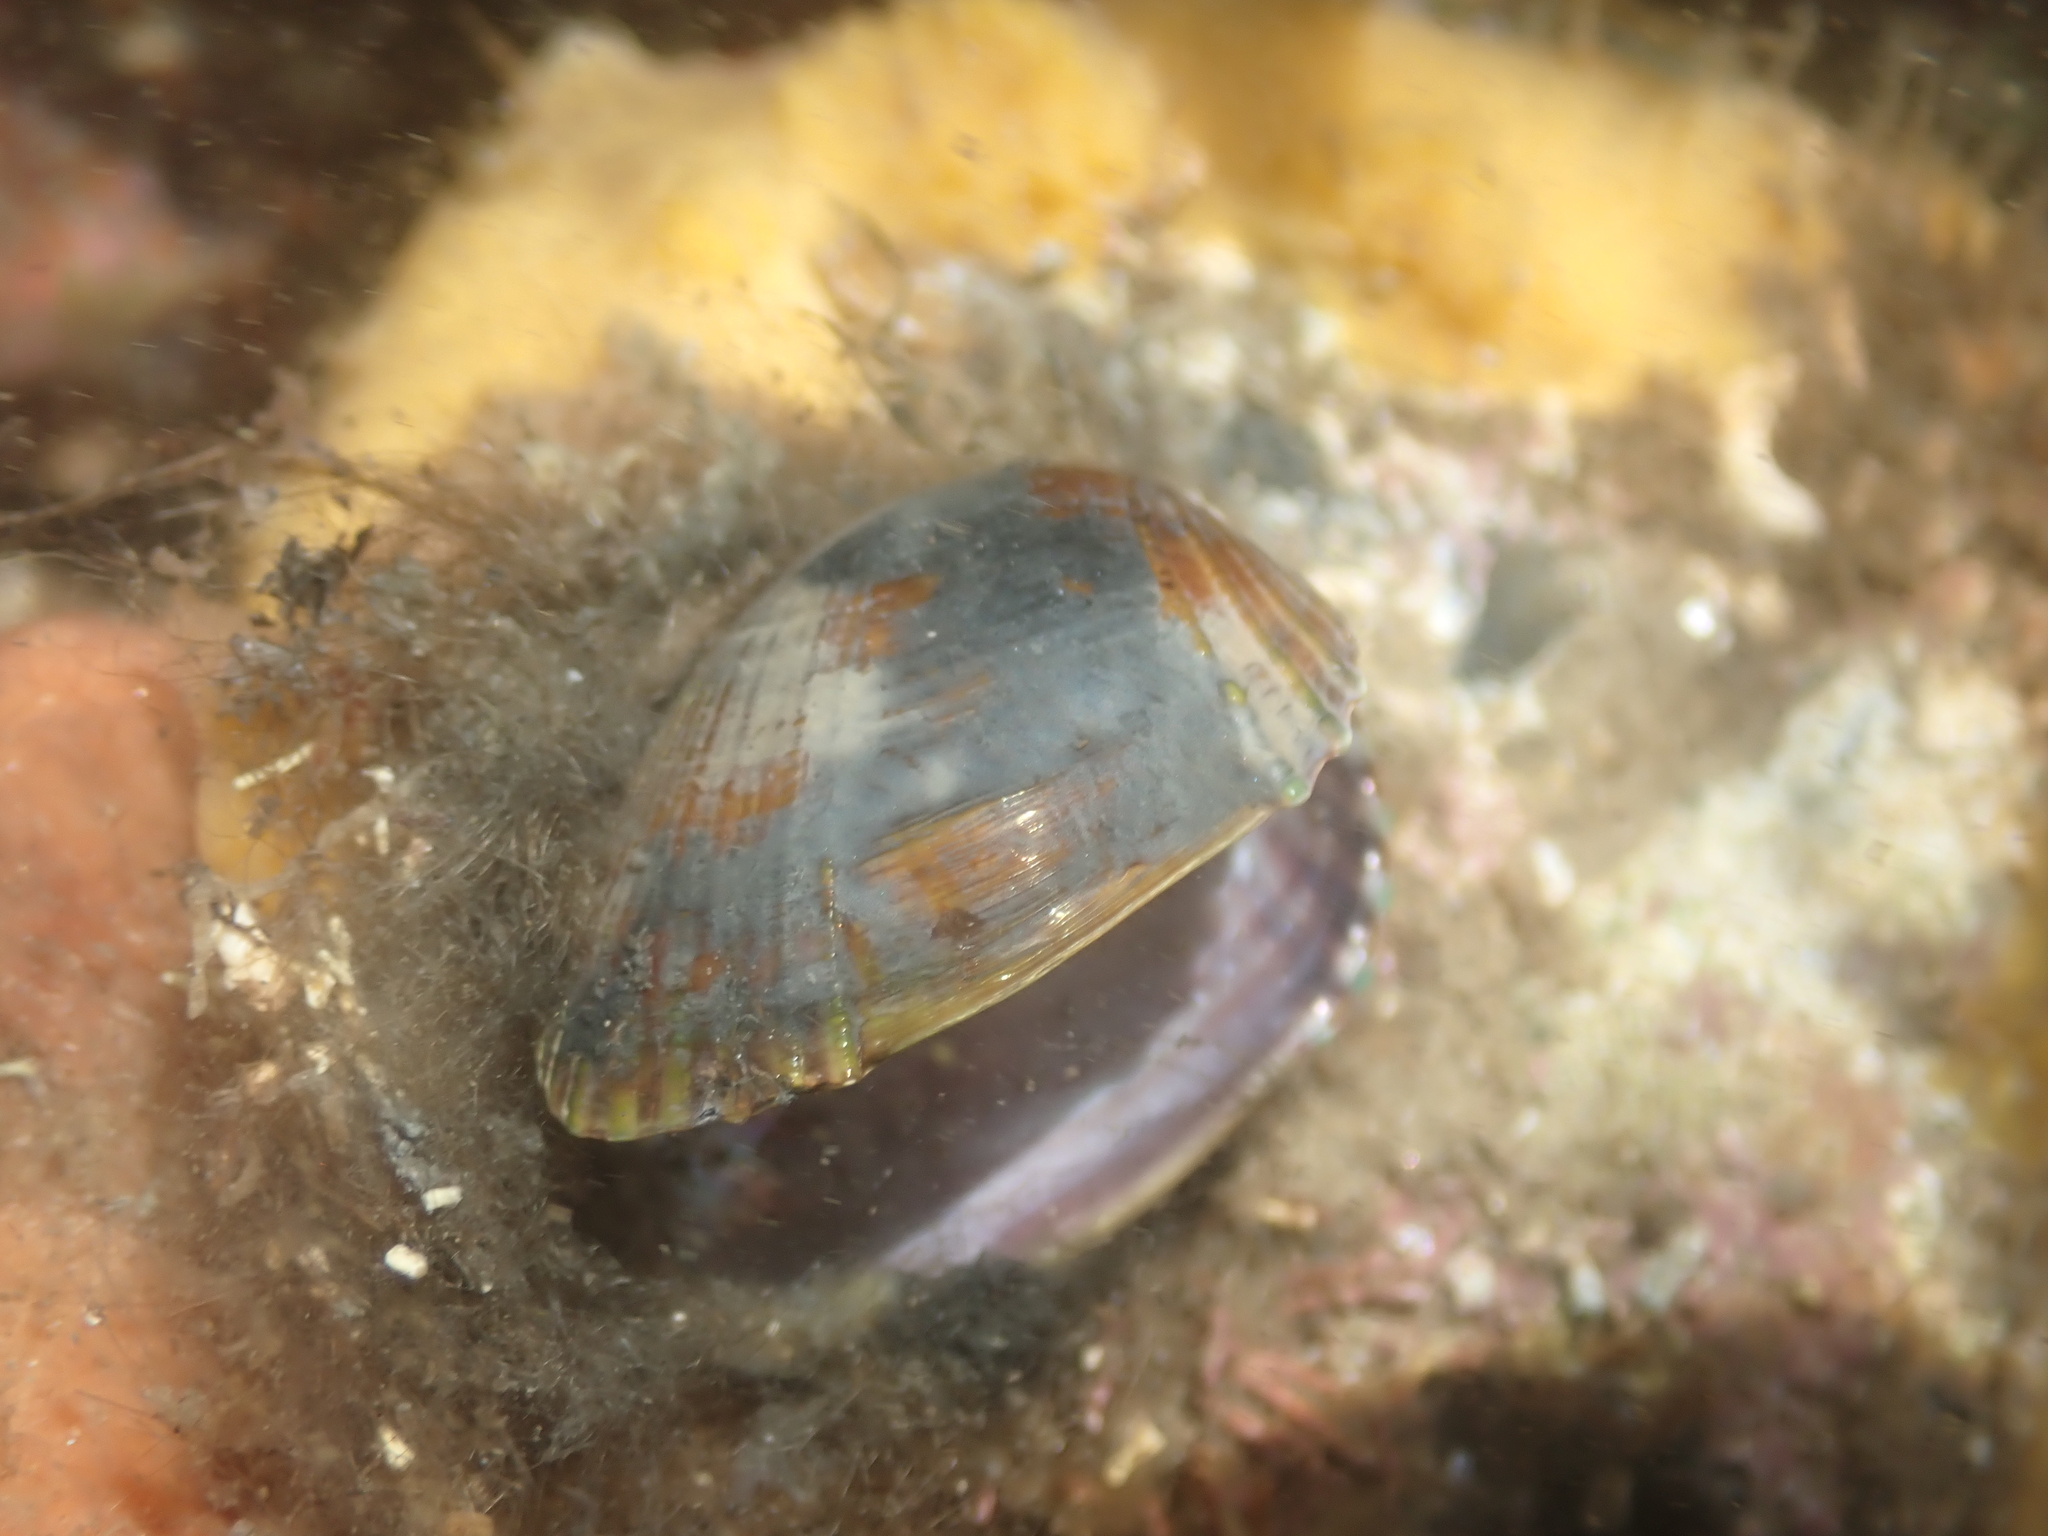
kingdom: Animalia
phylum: Mollusca
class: Bivalvia
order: Mytilida
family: Mytilidae
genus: Musculus
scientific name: Musculus impactus
